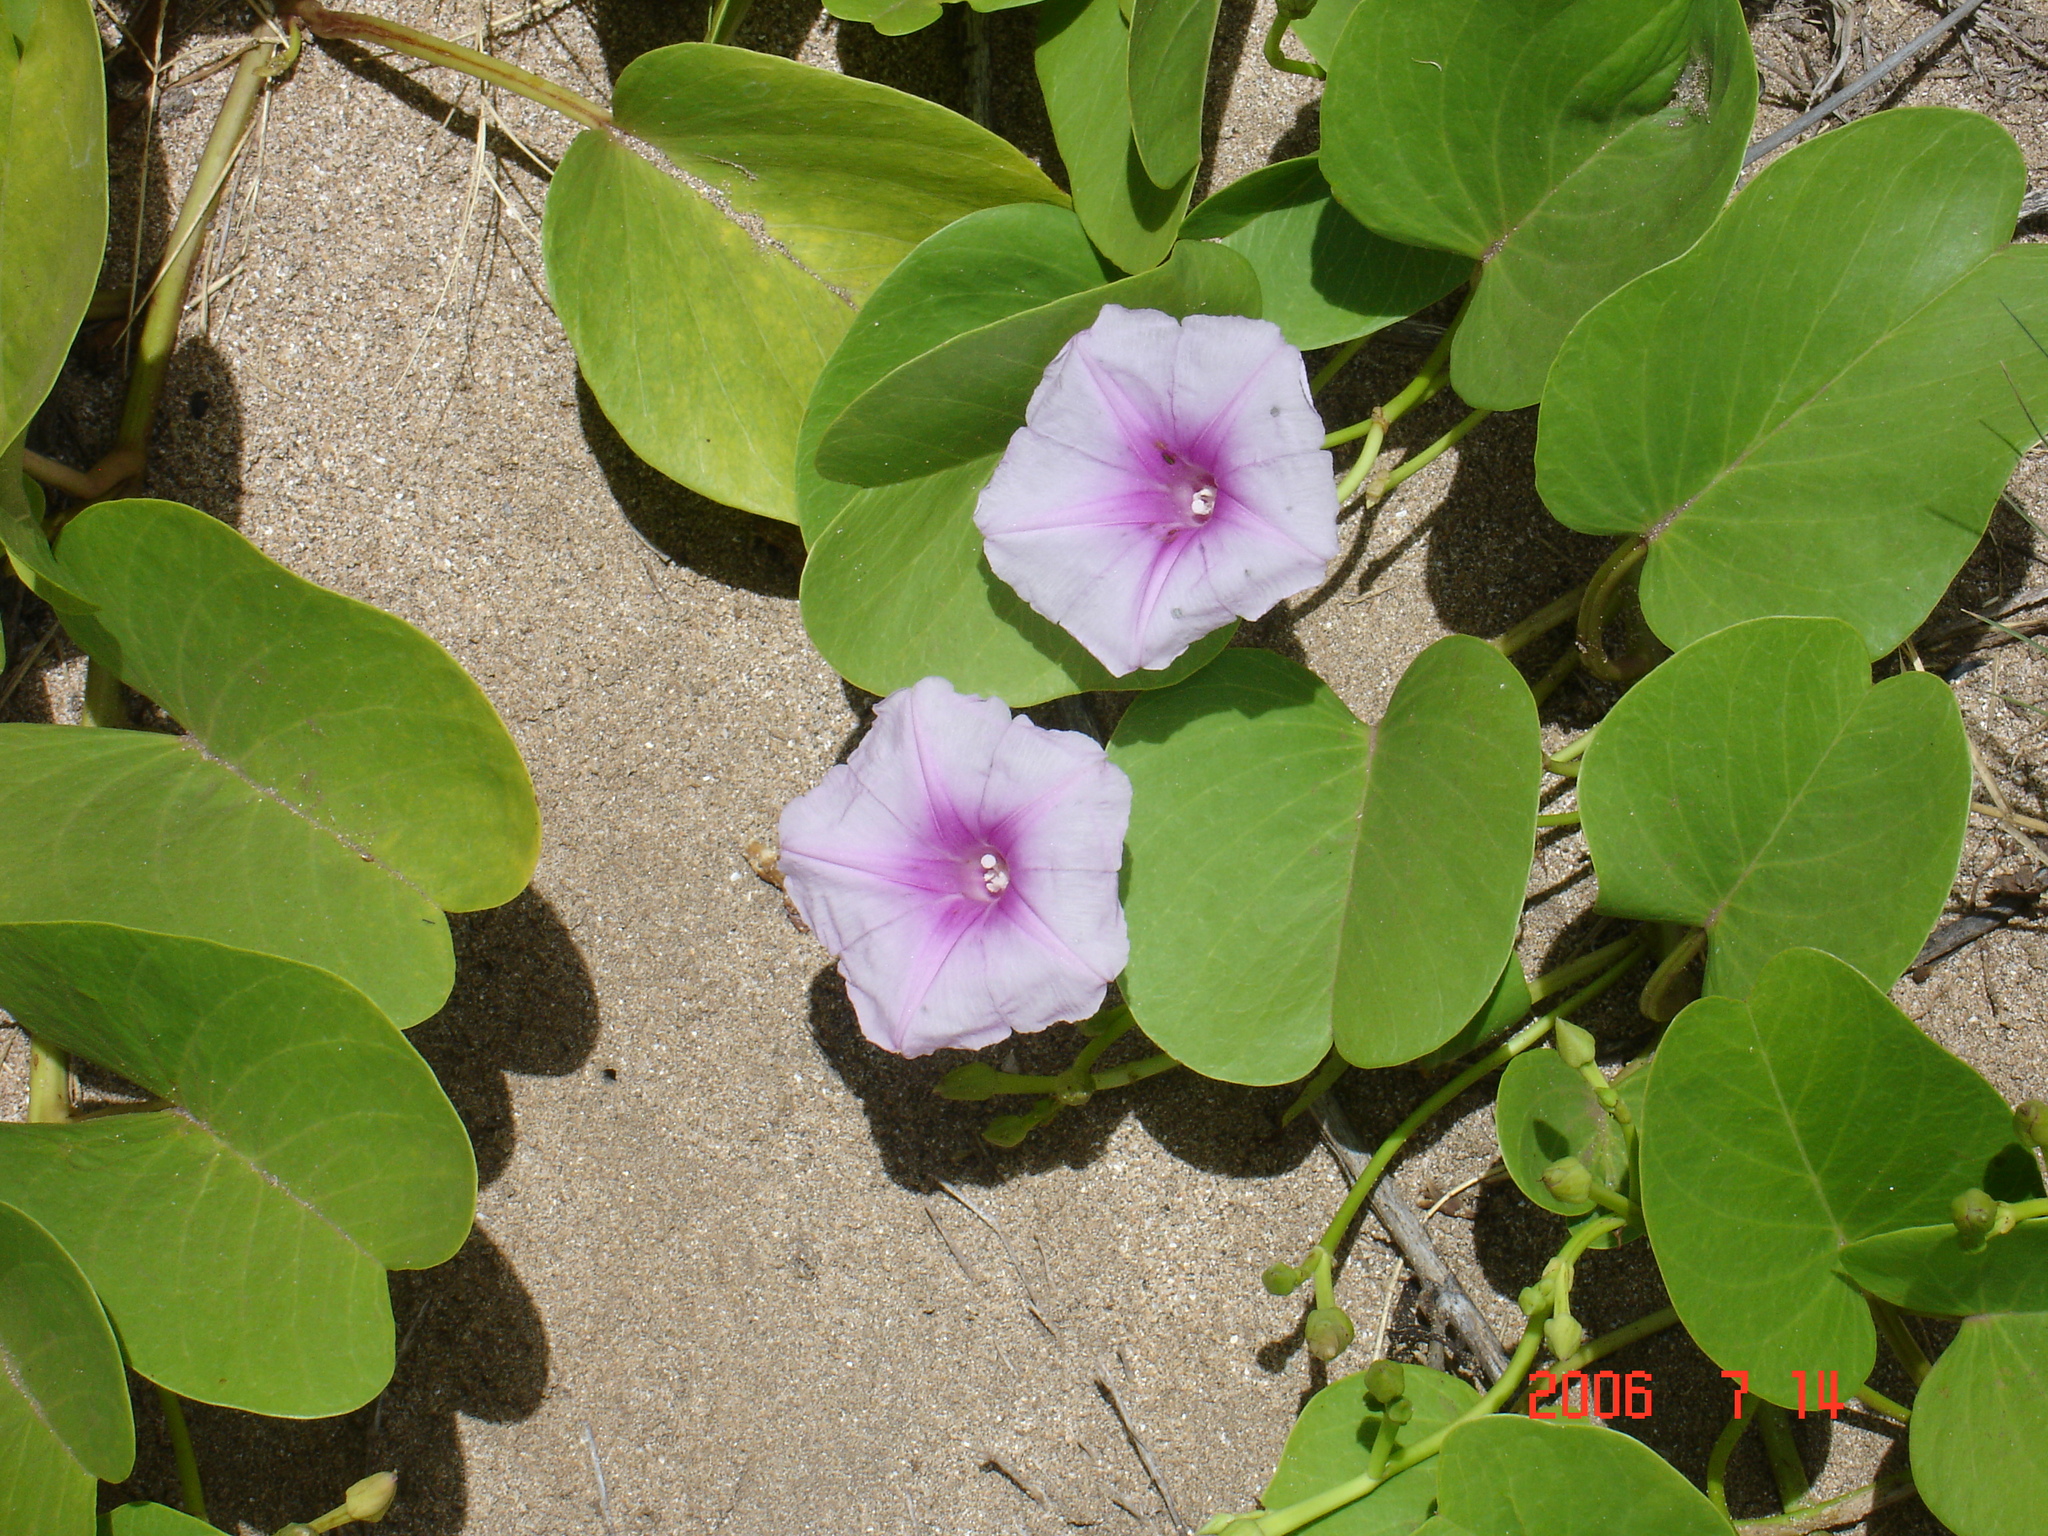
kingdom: Plantae
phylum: Tracheophyta
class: Magnoliopsida
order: Solanales
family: Convolvulaceae
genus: Ipomoea
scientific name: Ipomoea pes-caprae
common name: Beach morning glory
